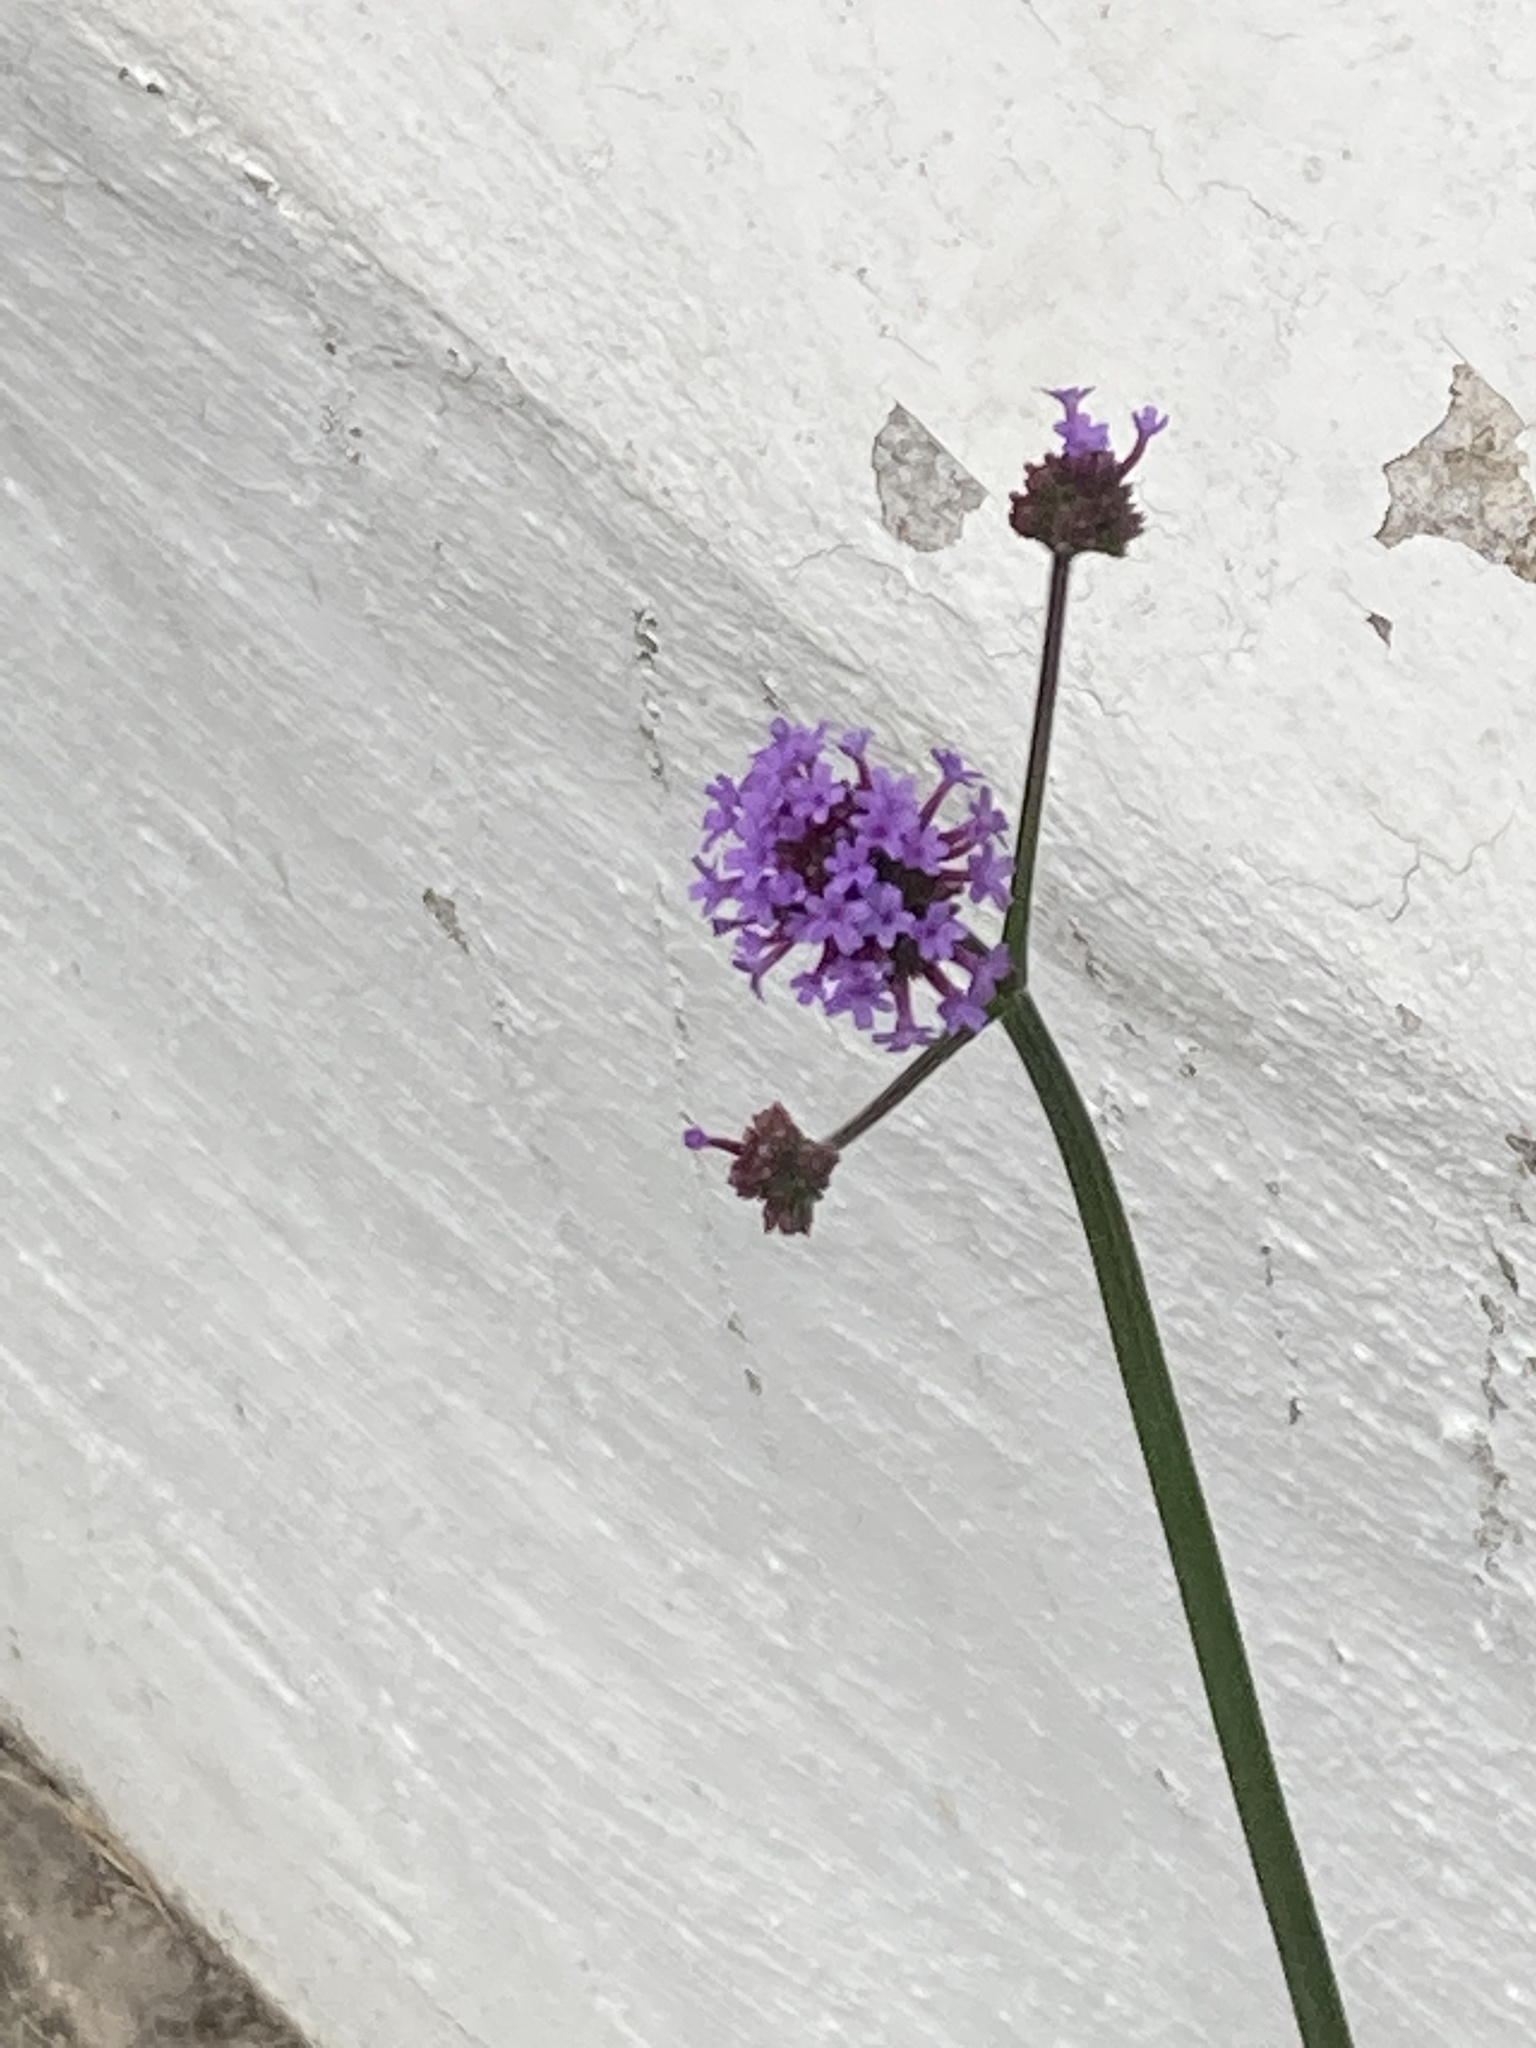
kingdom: Plantae
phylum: Tracheophyta
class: Magnoliopsida
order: Lamiales
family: Verbenaceae
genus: Verbena
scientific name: Verbena bonariensis
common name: Purpletop vervain
